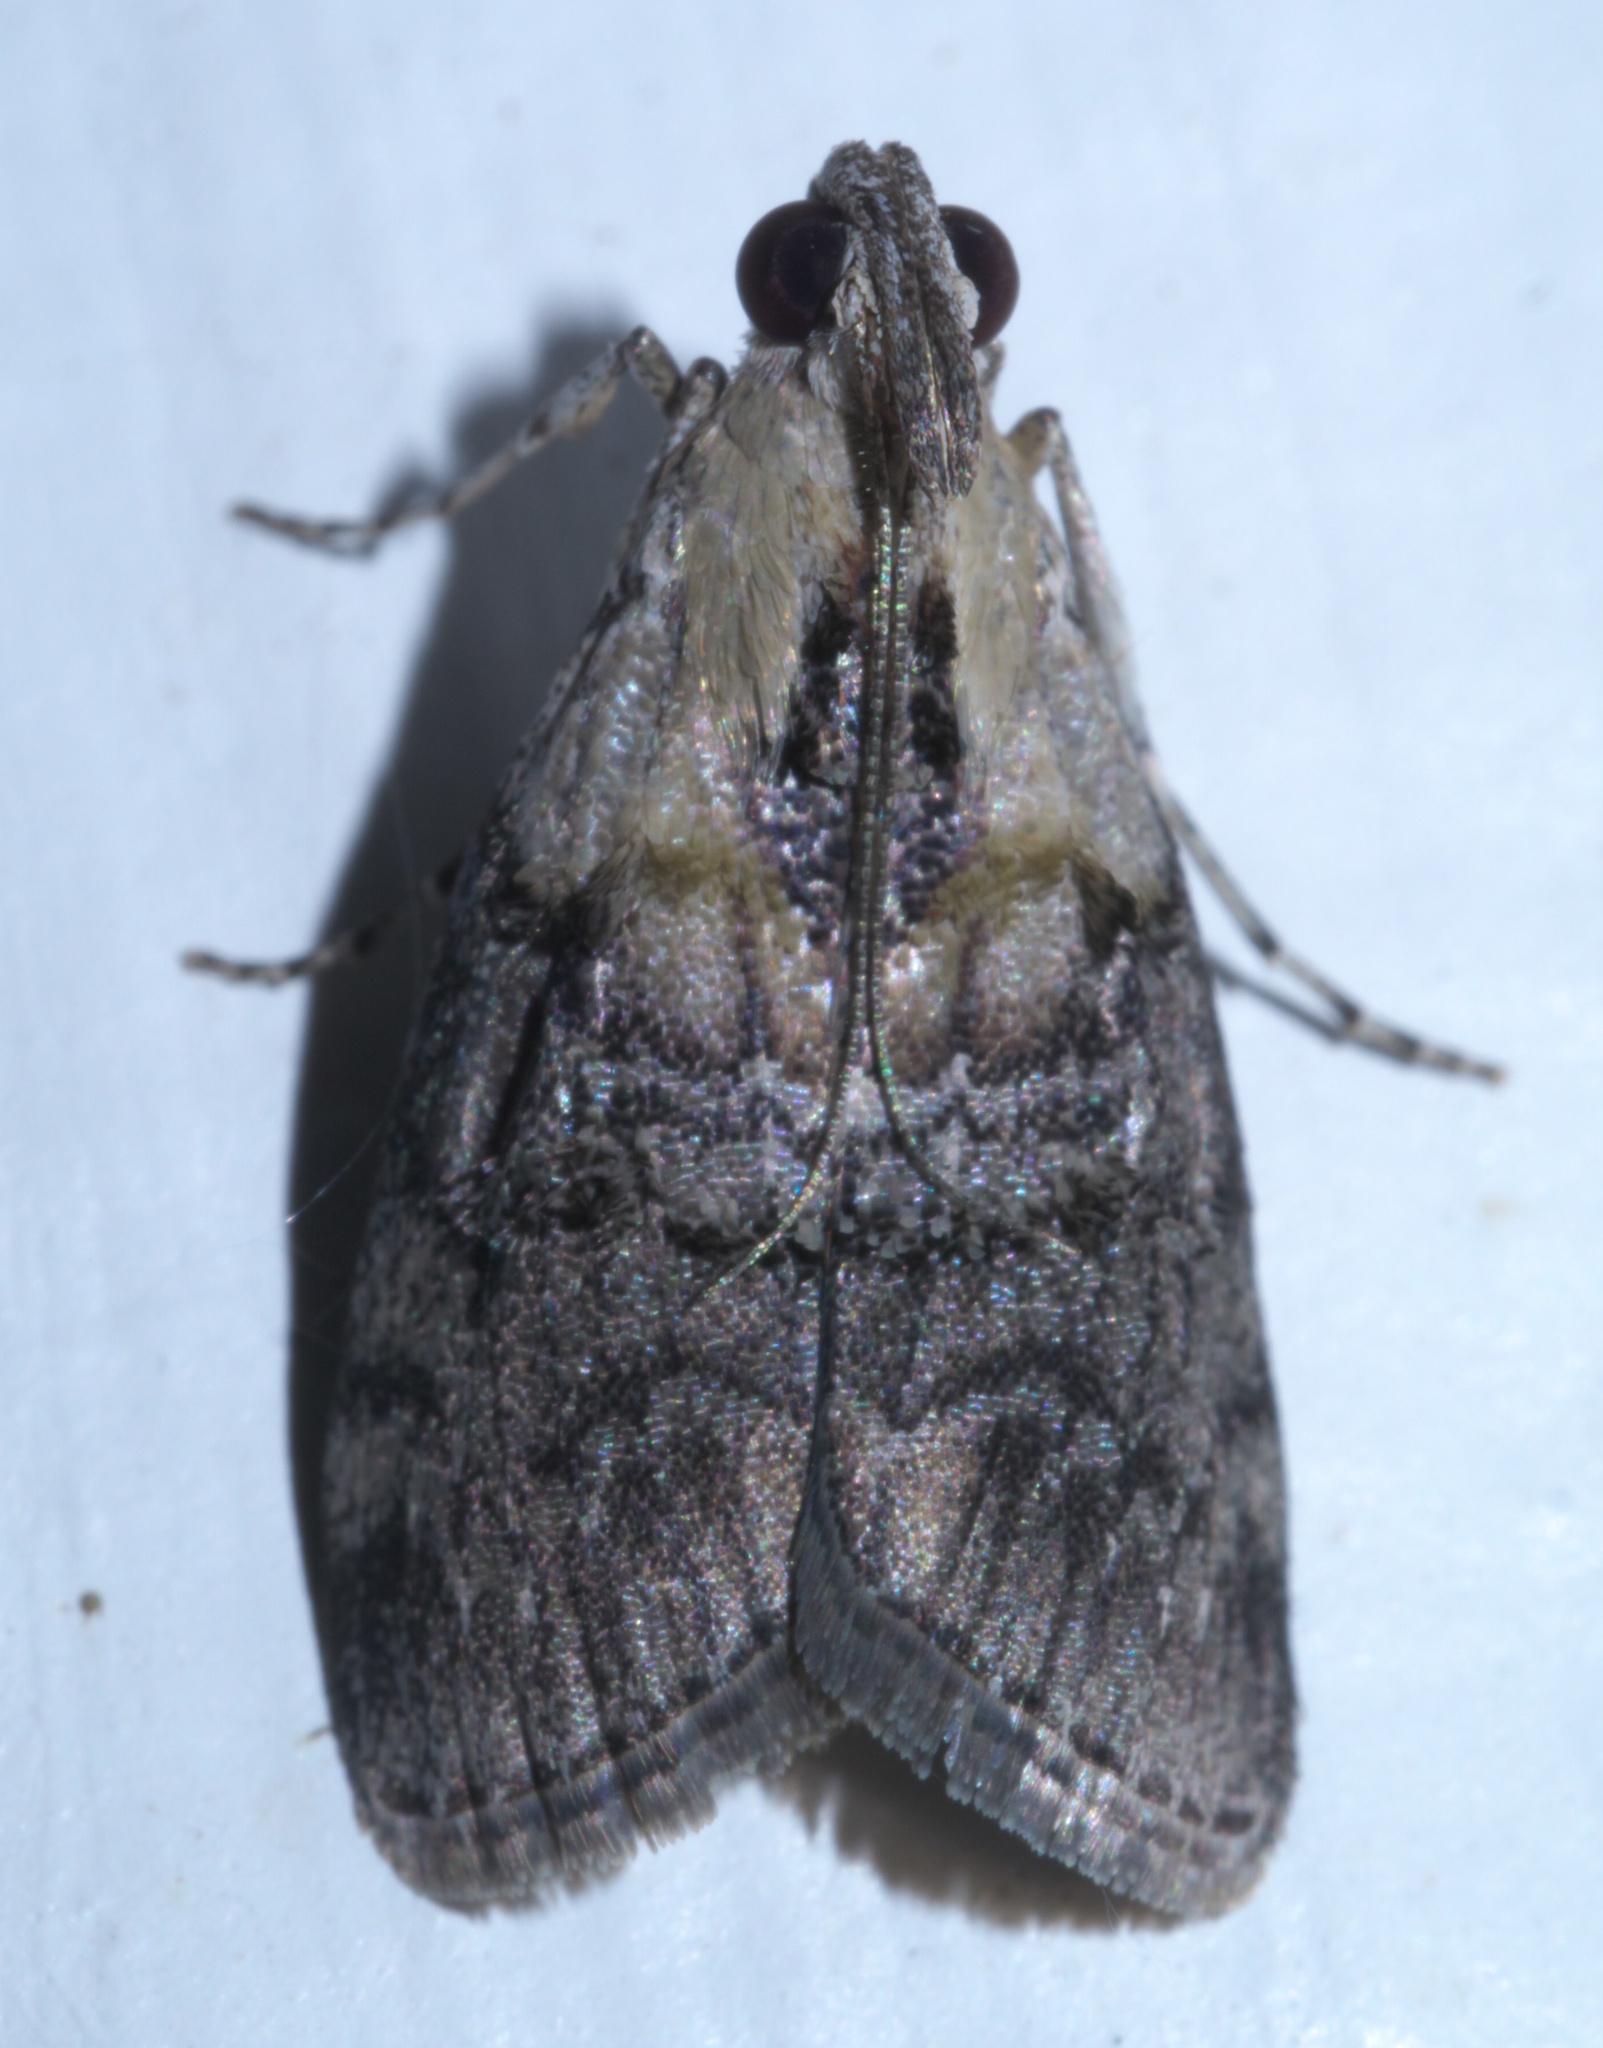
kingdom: Animalia
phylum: Arthropoda
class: Insecta
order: Lepidoptera
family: Pyralidae
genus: Pococera
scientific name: Pococera expandens
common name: Striped oak webworm moth
